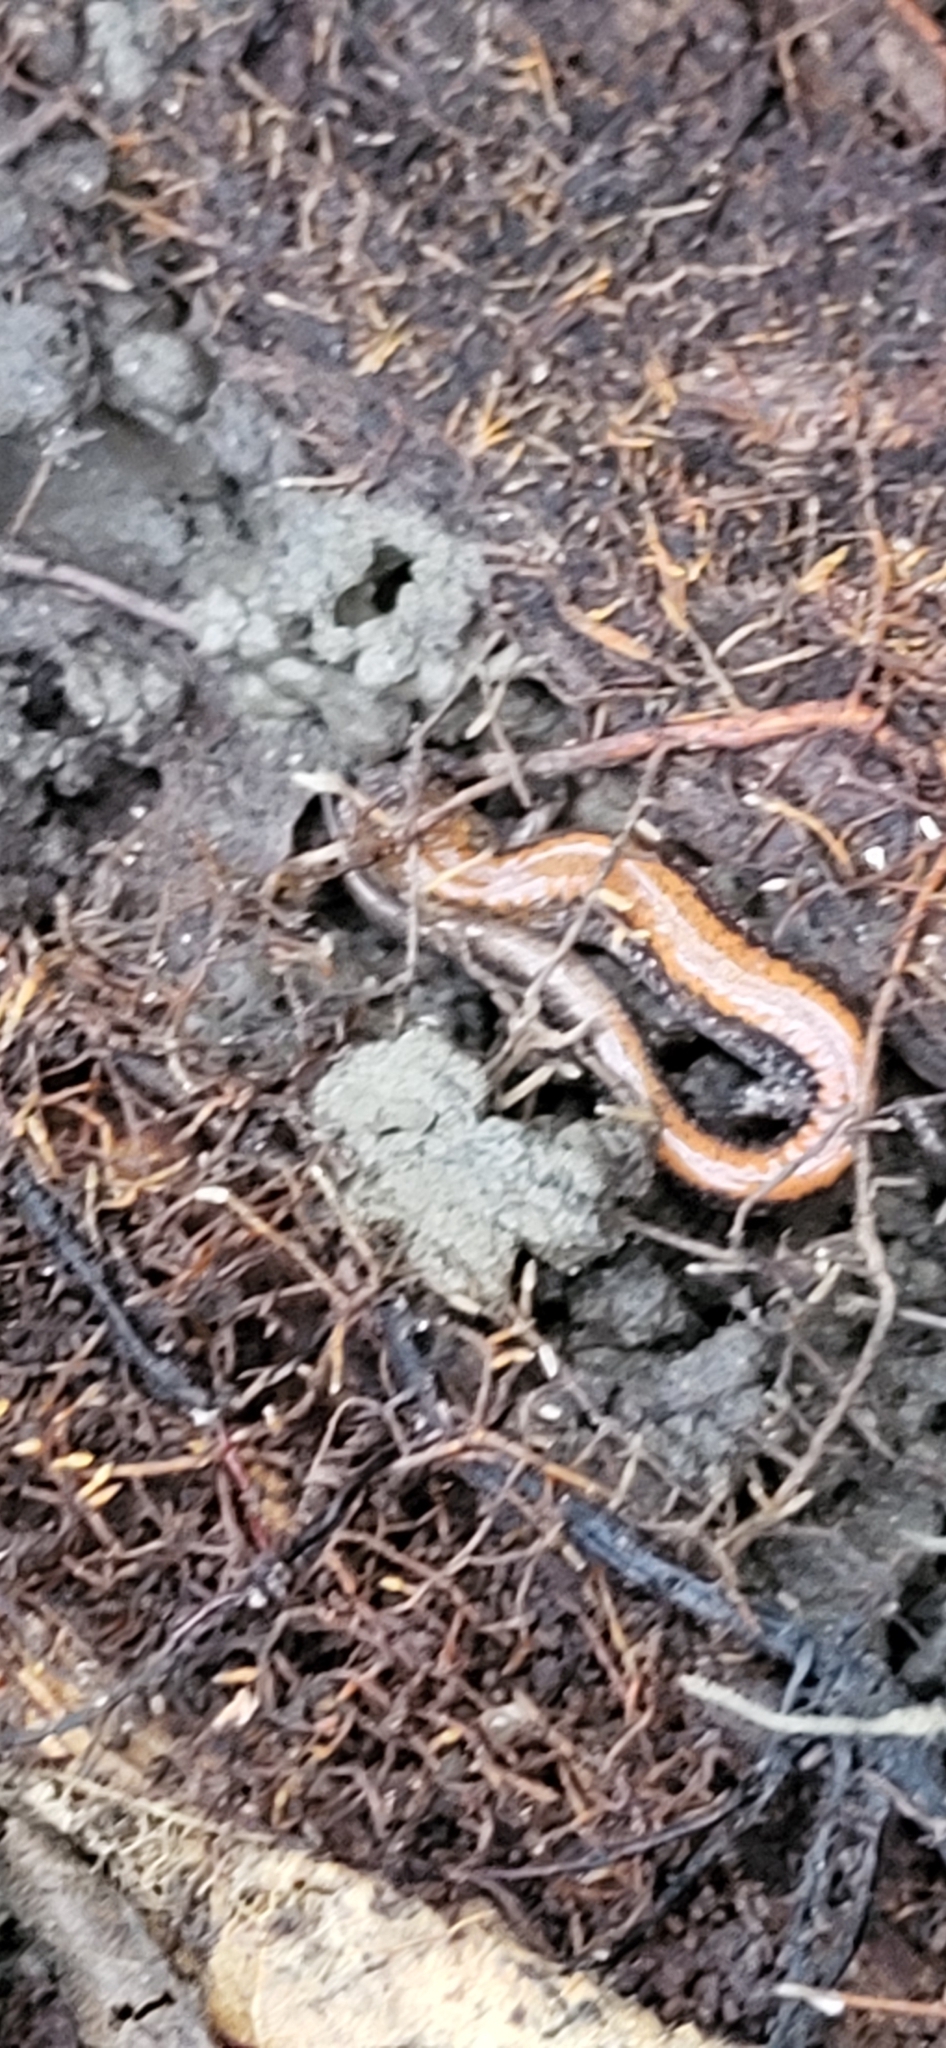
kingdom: Animalia
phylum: Chordata
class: Amphibia
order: Caudata
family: Plethodontidae
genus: Plethodon
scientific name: Plethodon cinereus
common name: Redback salamander
